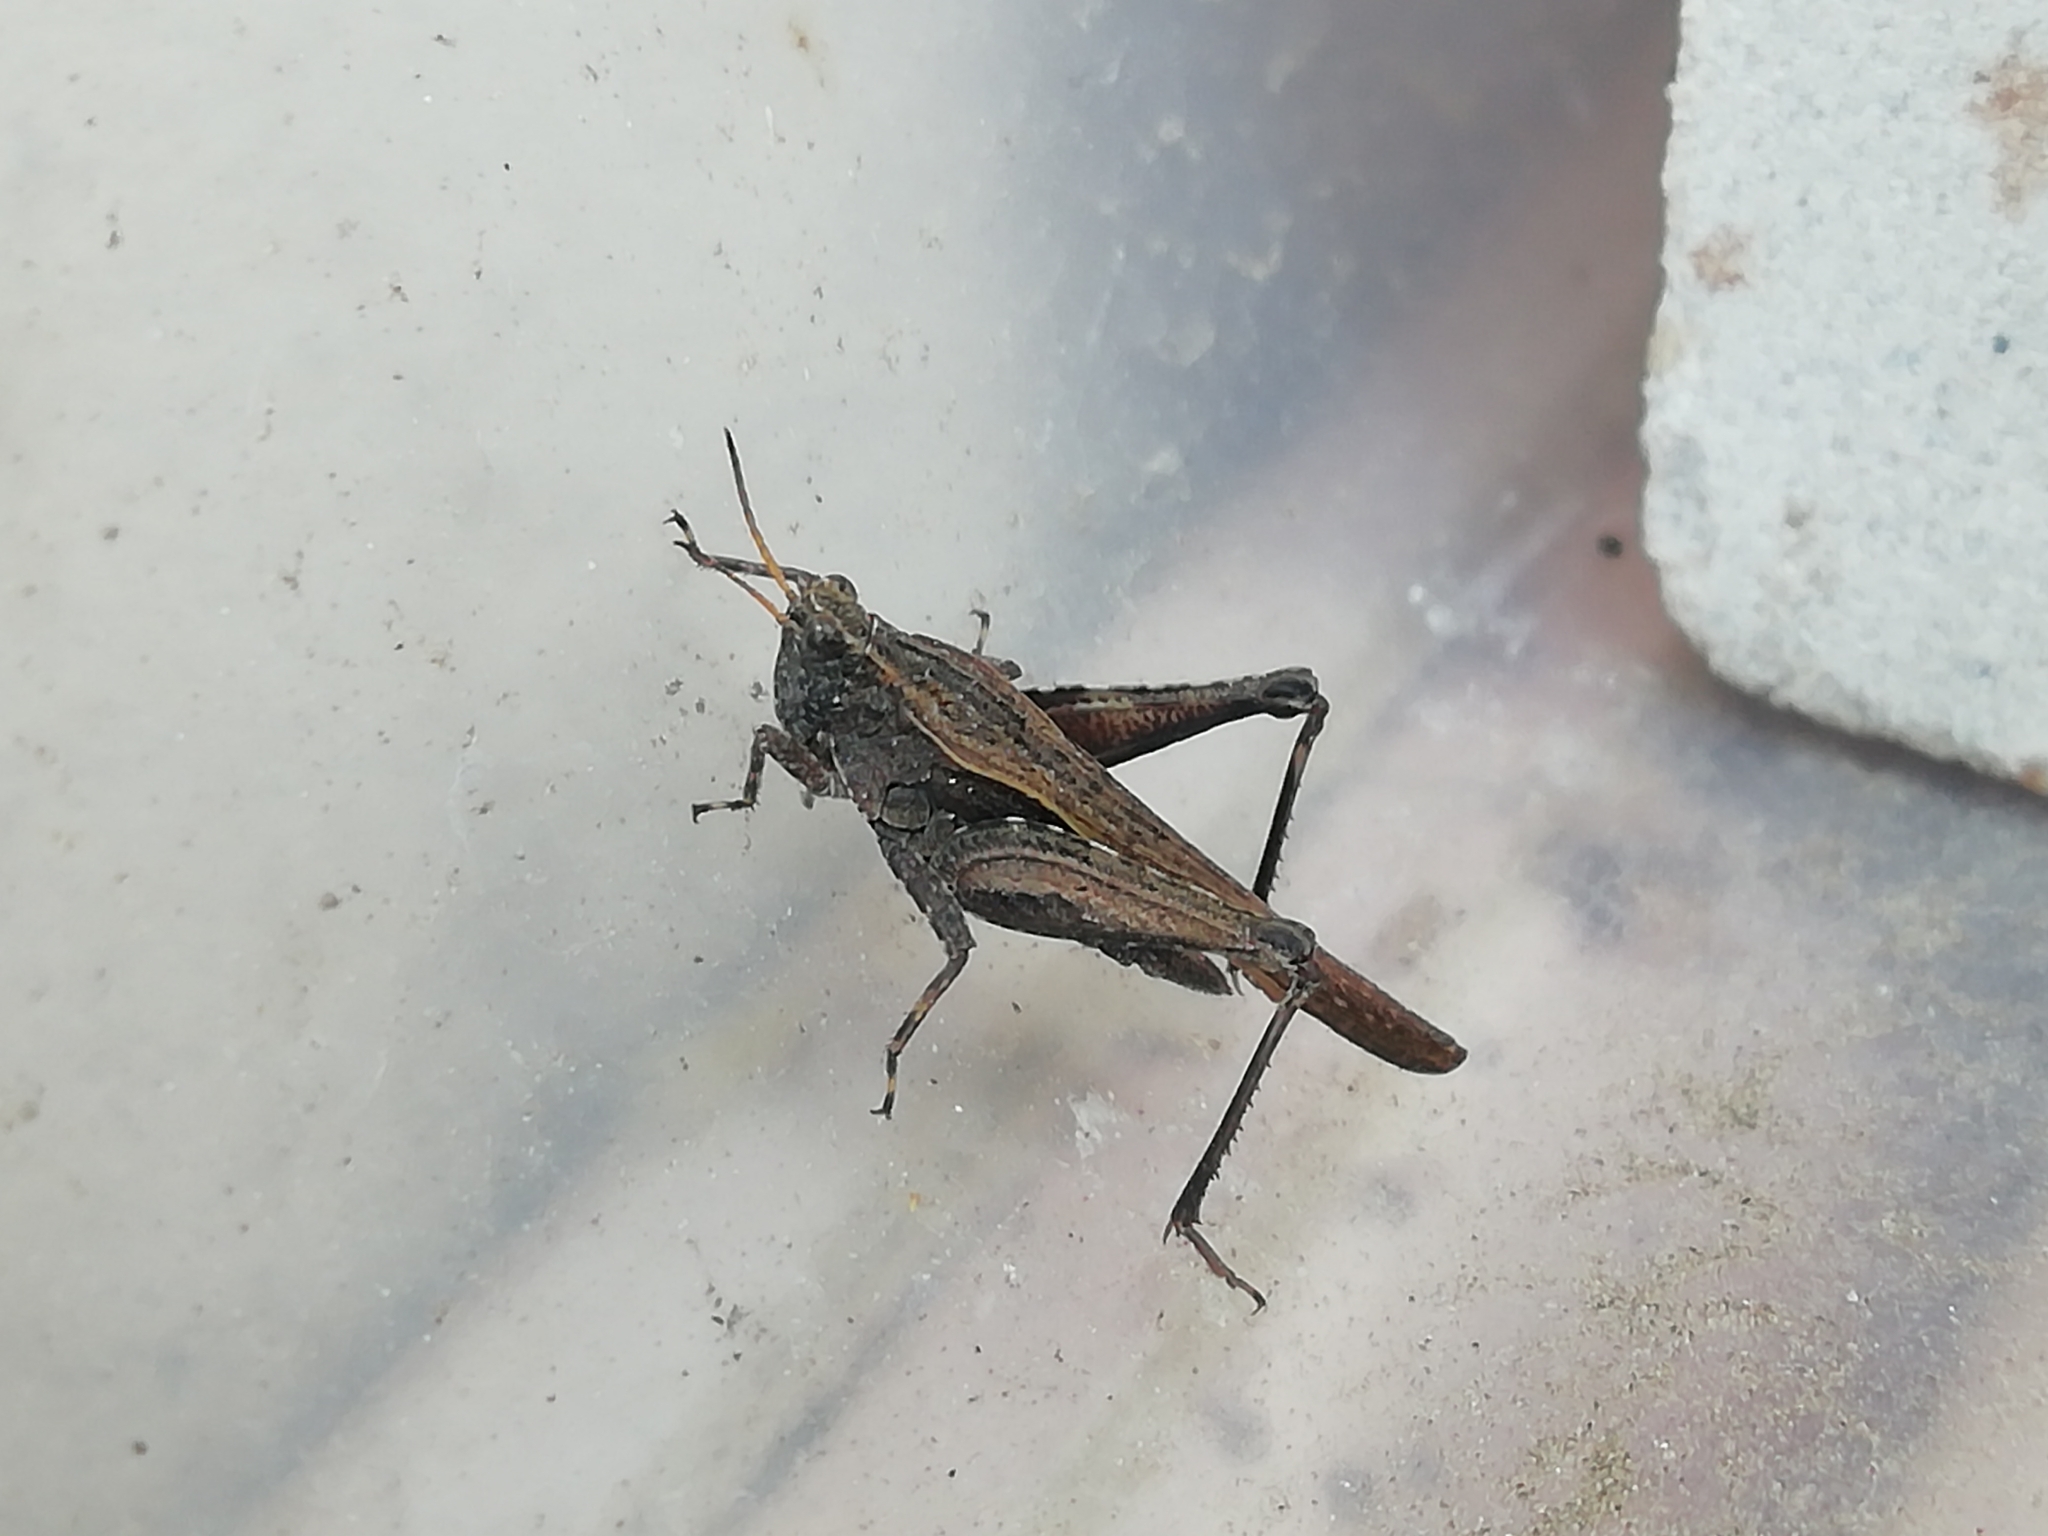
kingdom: Animalia
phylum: Arthropoda
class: Insecta
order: Orthoptera
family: Tetrigidae
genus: Tetrix
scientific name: Tetrix subulata
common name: Slender ground-hopper
